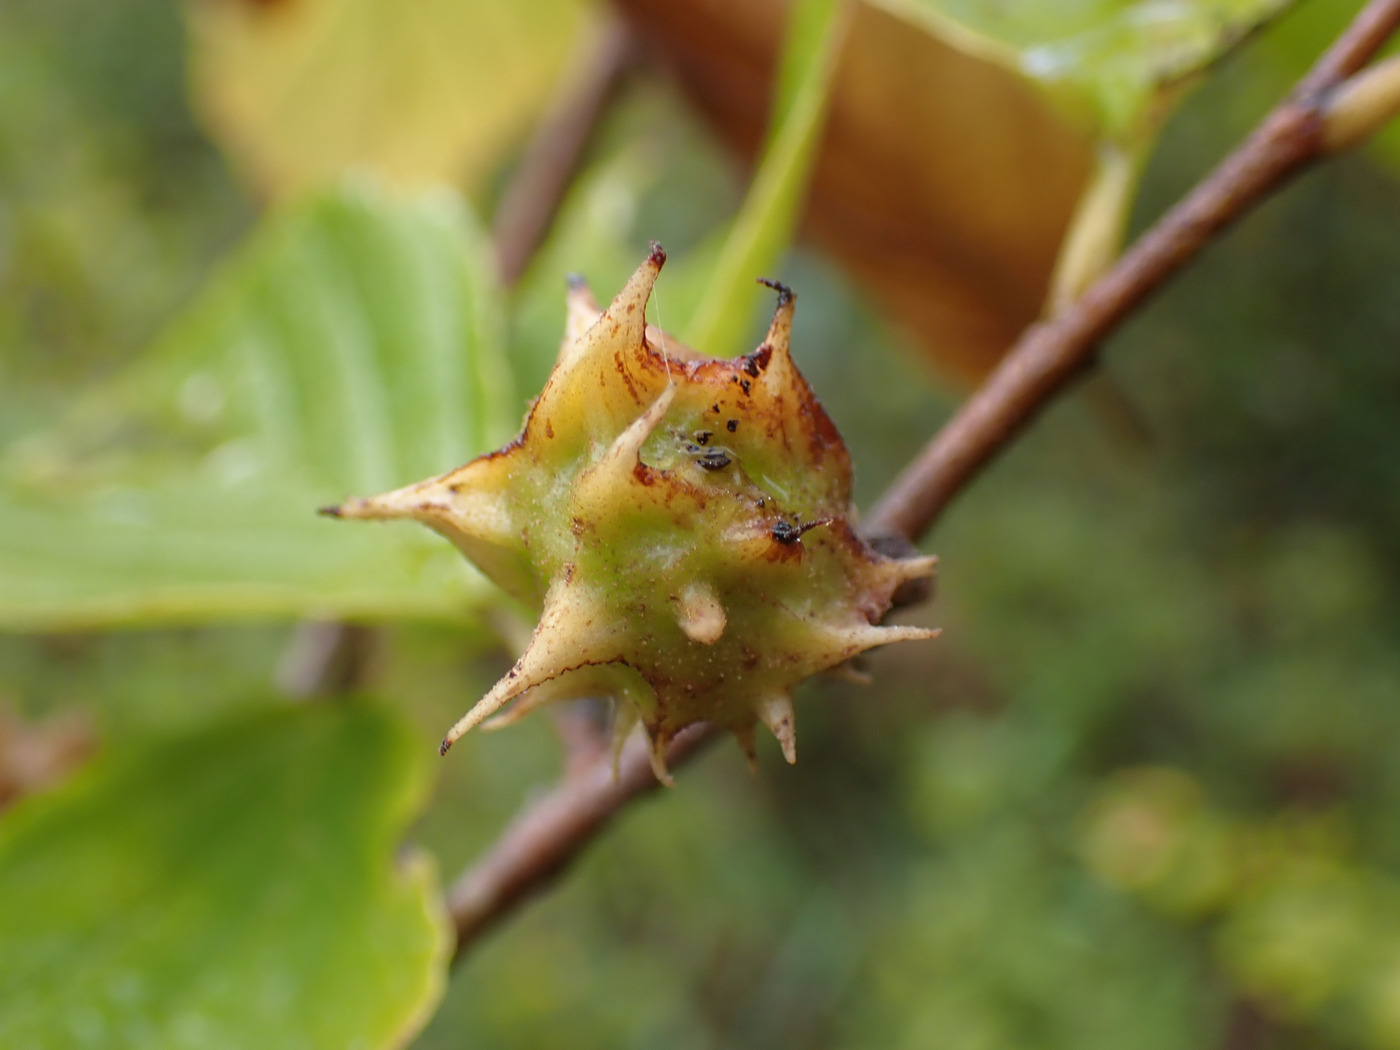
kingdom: Animalia
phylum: Arthropoda
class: Insecta
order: Hemiptera
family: Aphididae
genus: Hamamelistes
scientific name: Hamamelistes spinosus
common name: Witch hazel gall aphid
